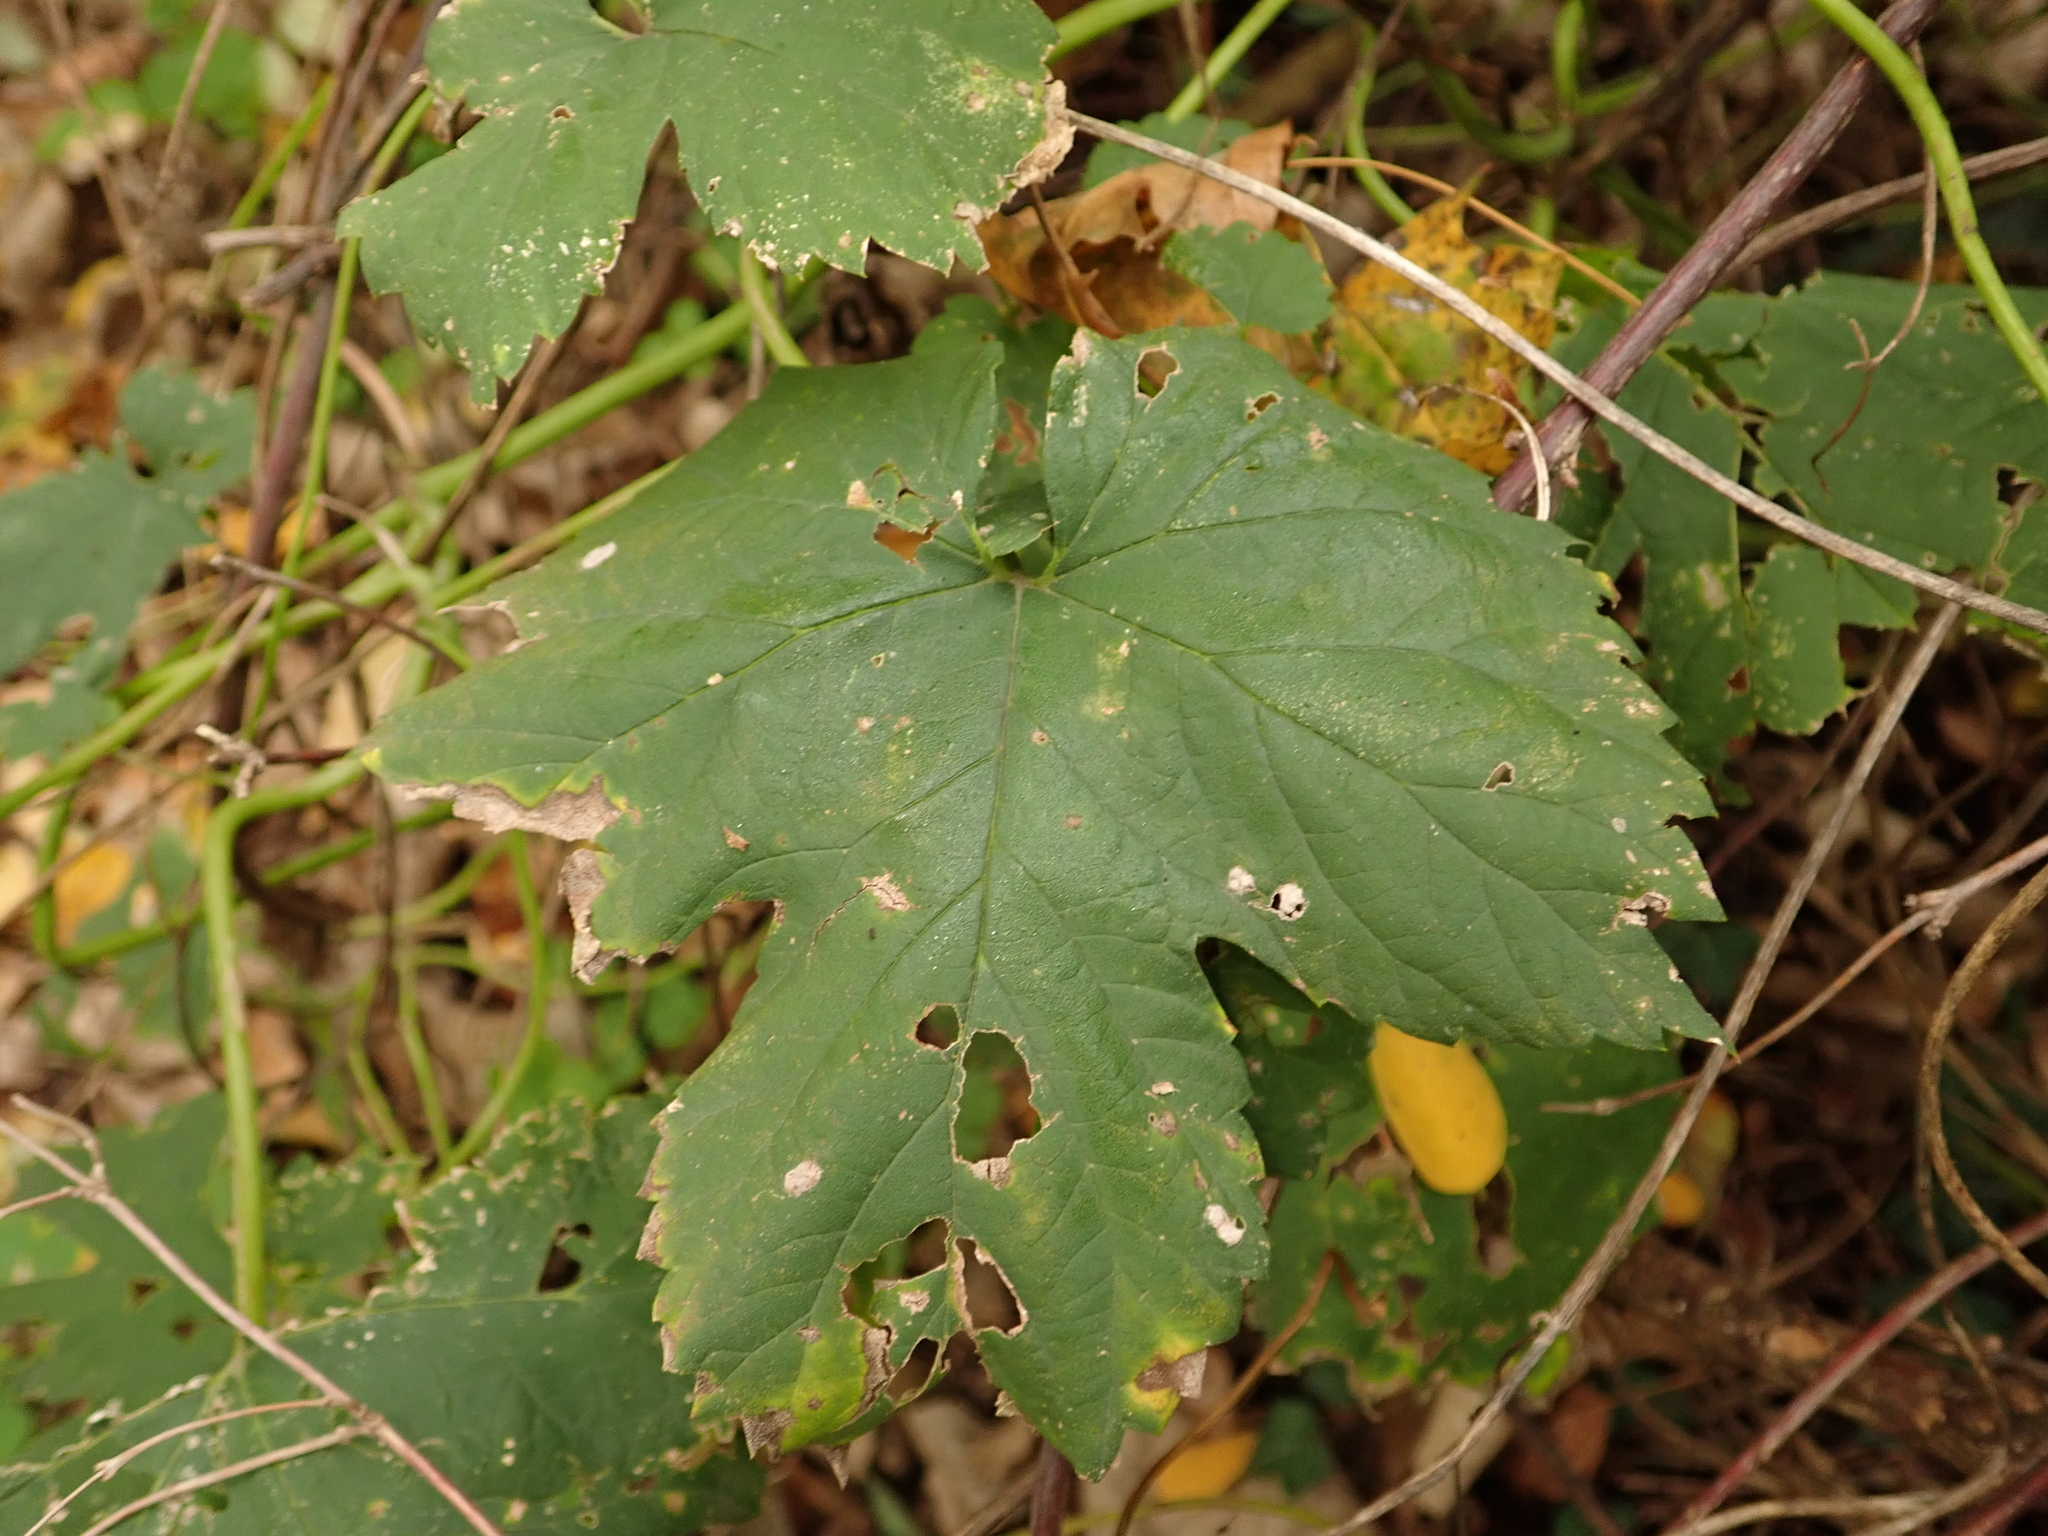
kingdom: Plantae
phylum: Tracheophyta
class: Magnoliopsida
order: Rosales
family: Cannabaceae
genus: Humulus
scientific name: Humulus lupulus
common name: Hop
